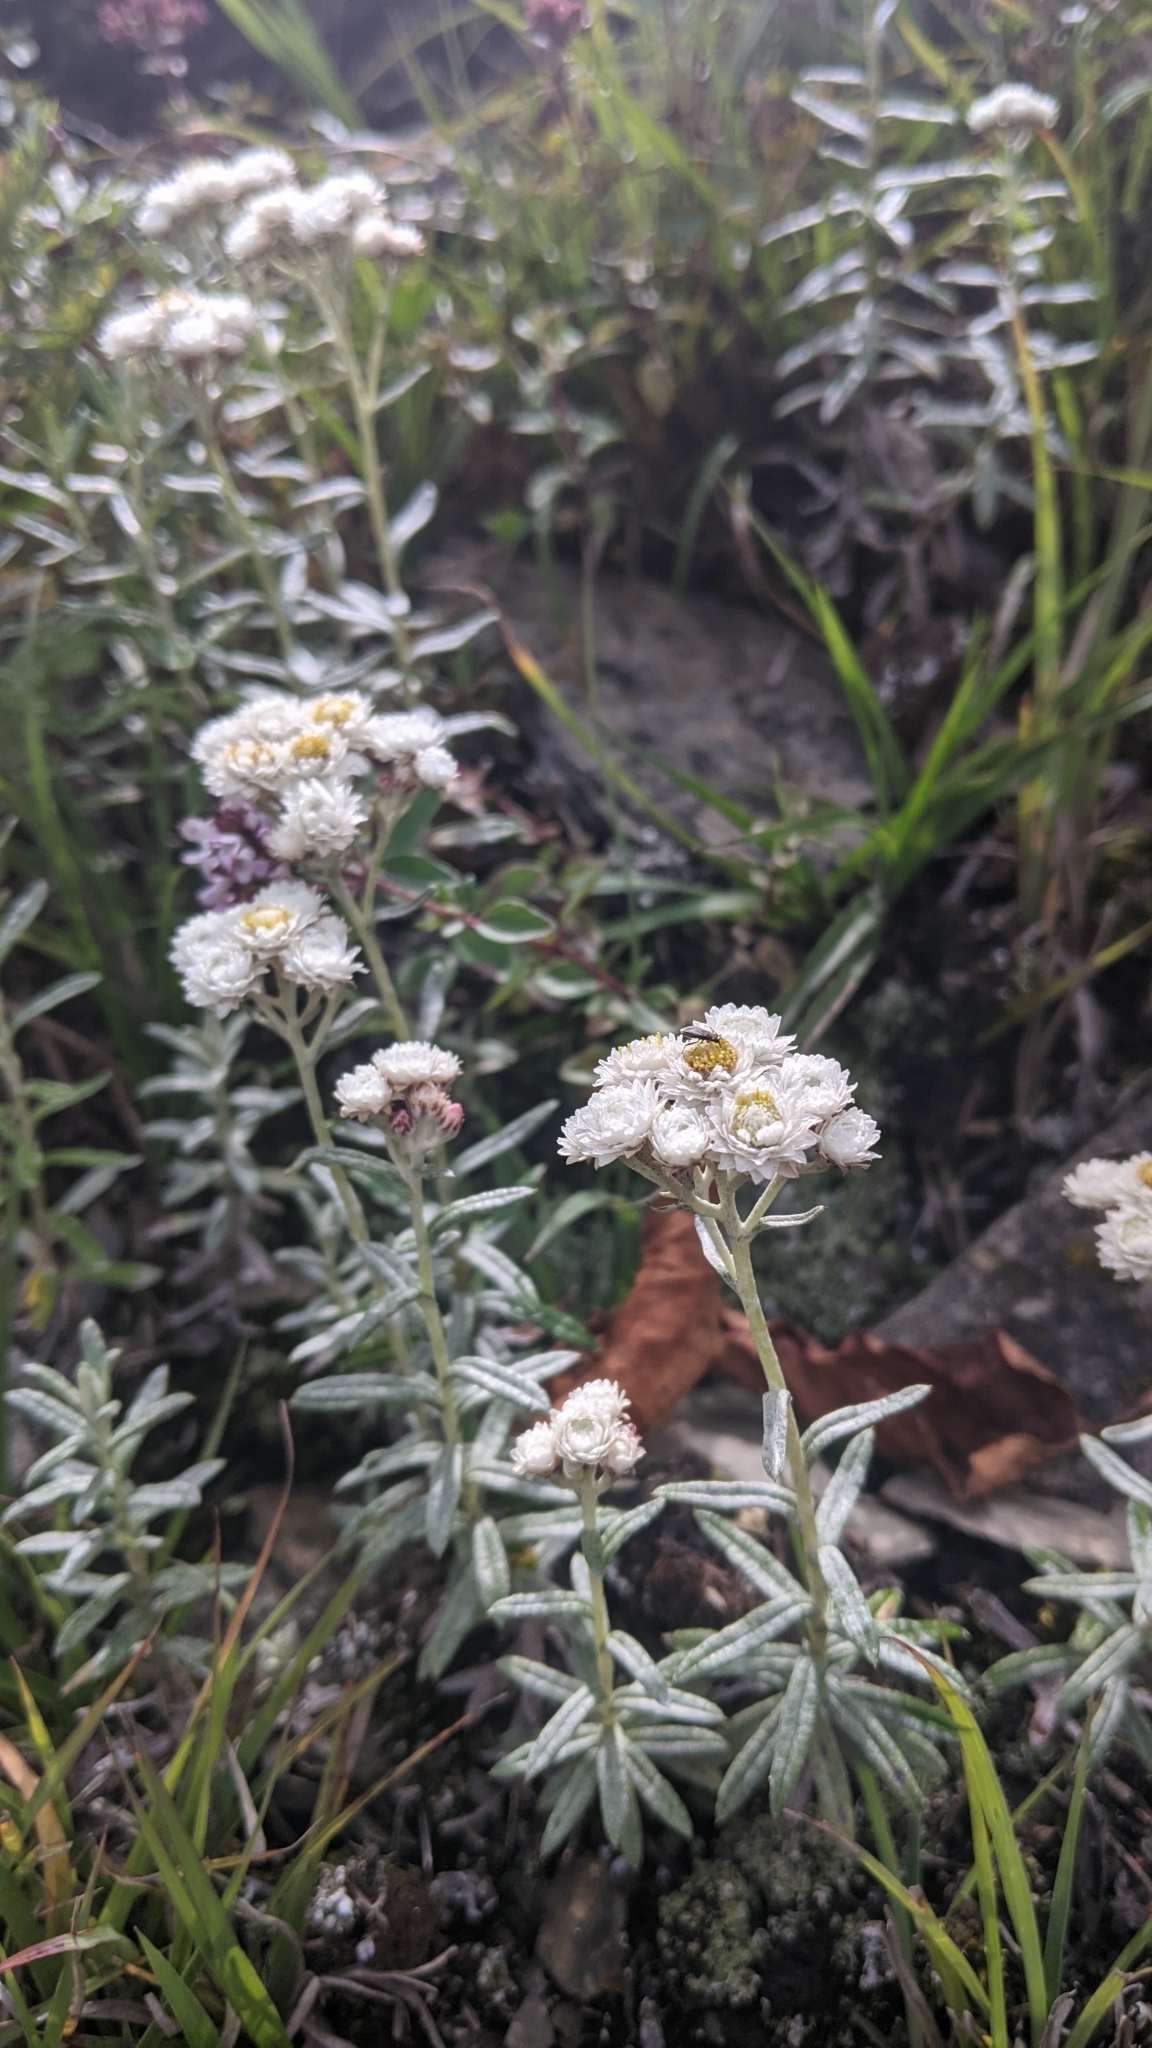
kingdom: Plantae
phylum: Tracheophyta
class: Magnoliopsida
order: Asterales
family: Asteraceae
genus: Anaphalis
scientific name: Anaphalis morrisonicola
